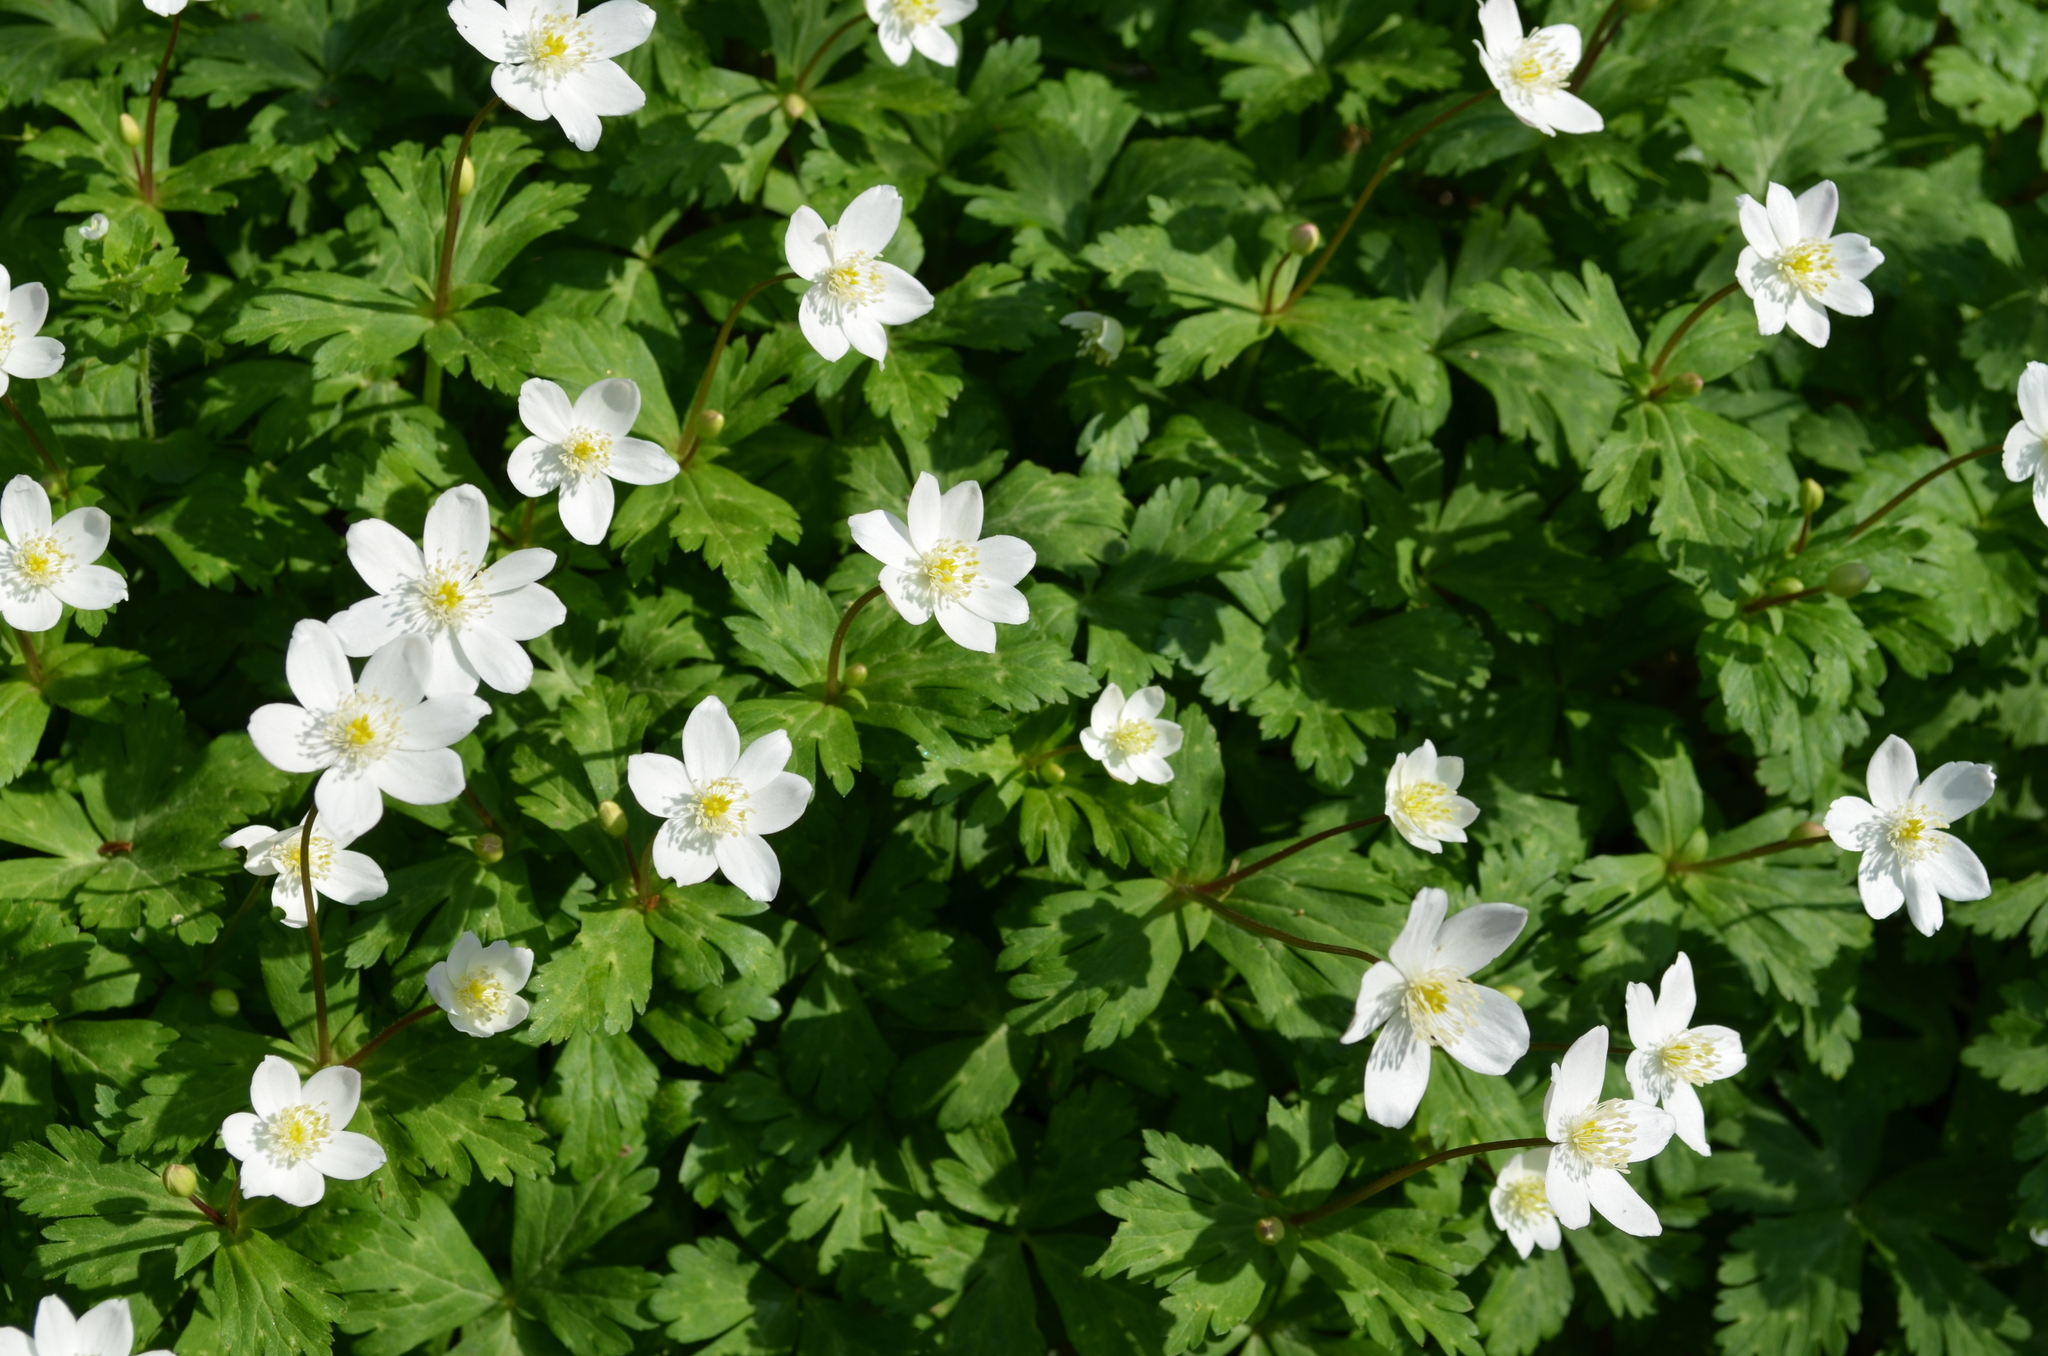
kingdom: Plantae
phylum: Tracheophyta
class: Magnoliopsida
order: Ranunculales
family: Ranunculaceae
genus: Anemonastrum
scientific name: Anemonastrum flaccidum
